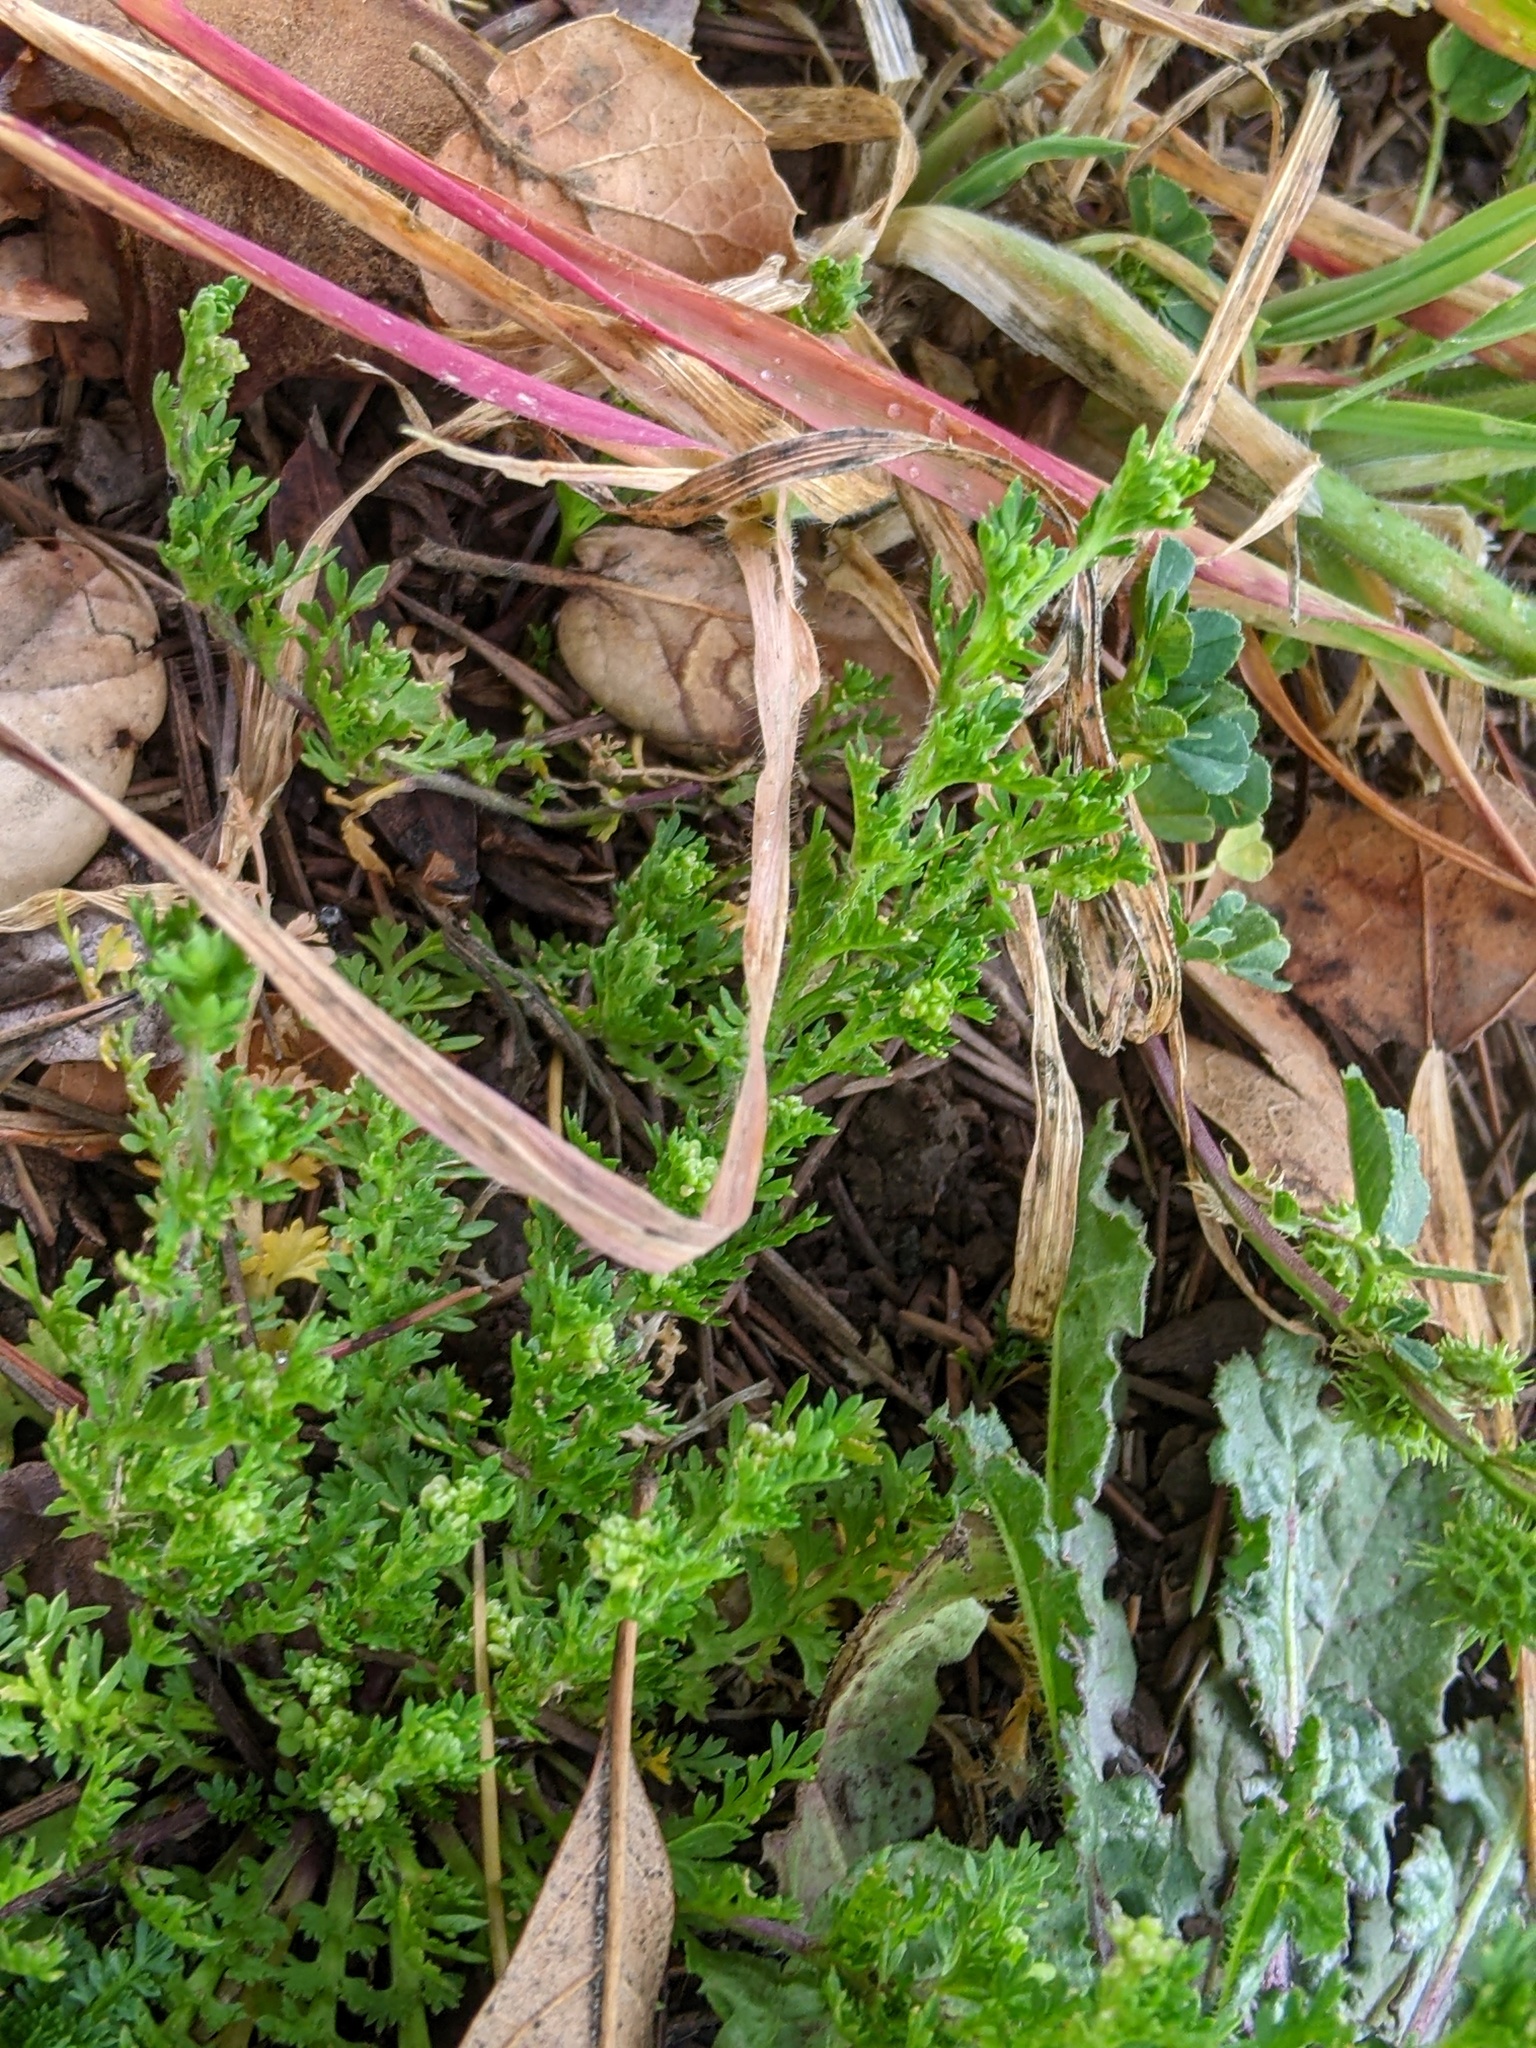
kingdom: Plantae
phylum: Tracheophyta
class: Magnoliopsida
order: Brassicales
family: Brassicaceae
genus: Lepidium
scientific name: Lepidium didymum
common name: Lesser swinecress
